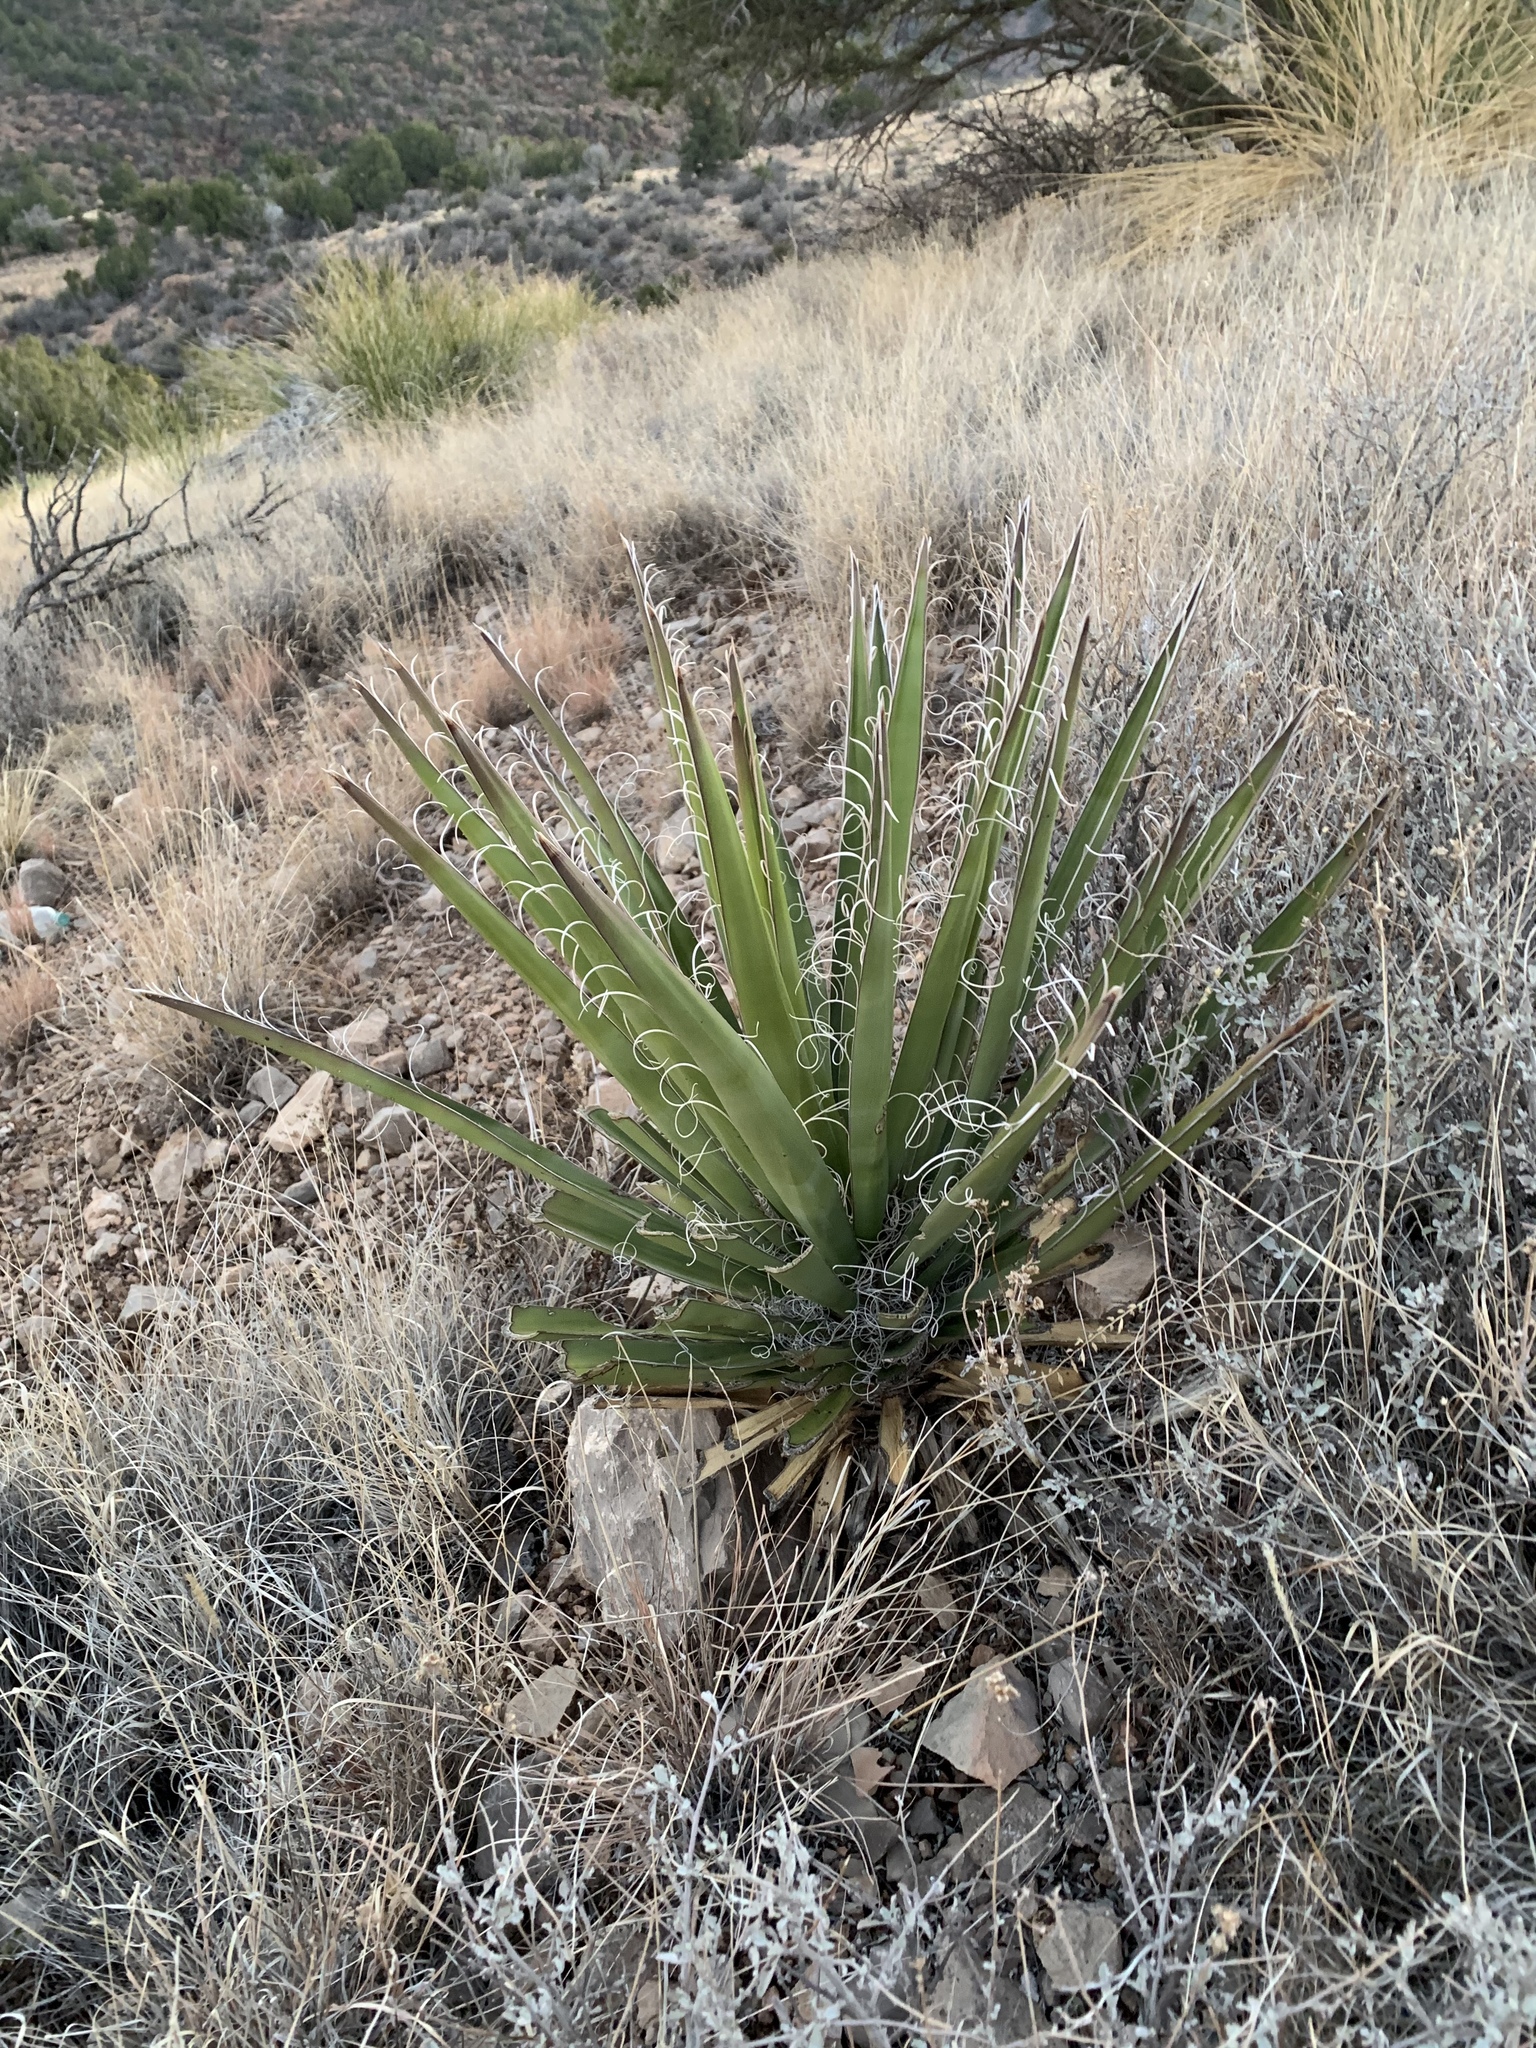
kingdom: Plantae
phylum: Tracheophyta
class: Liliopsida
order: Asparagales
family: Asparagaceae
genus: Yucca
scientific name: Yucca baccata
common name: Banana yucca
